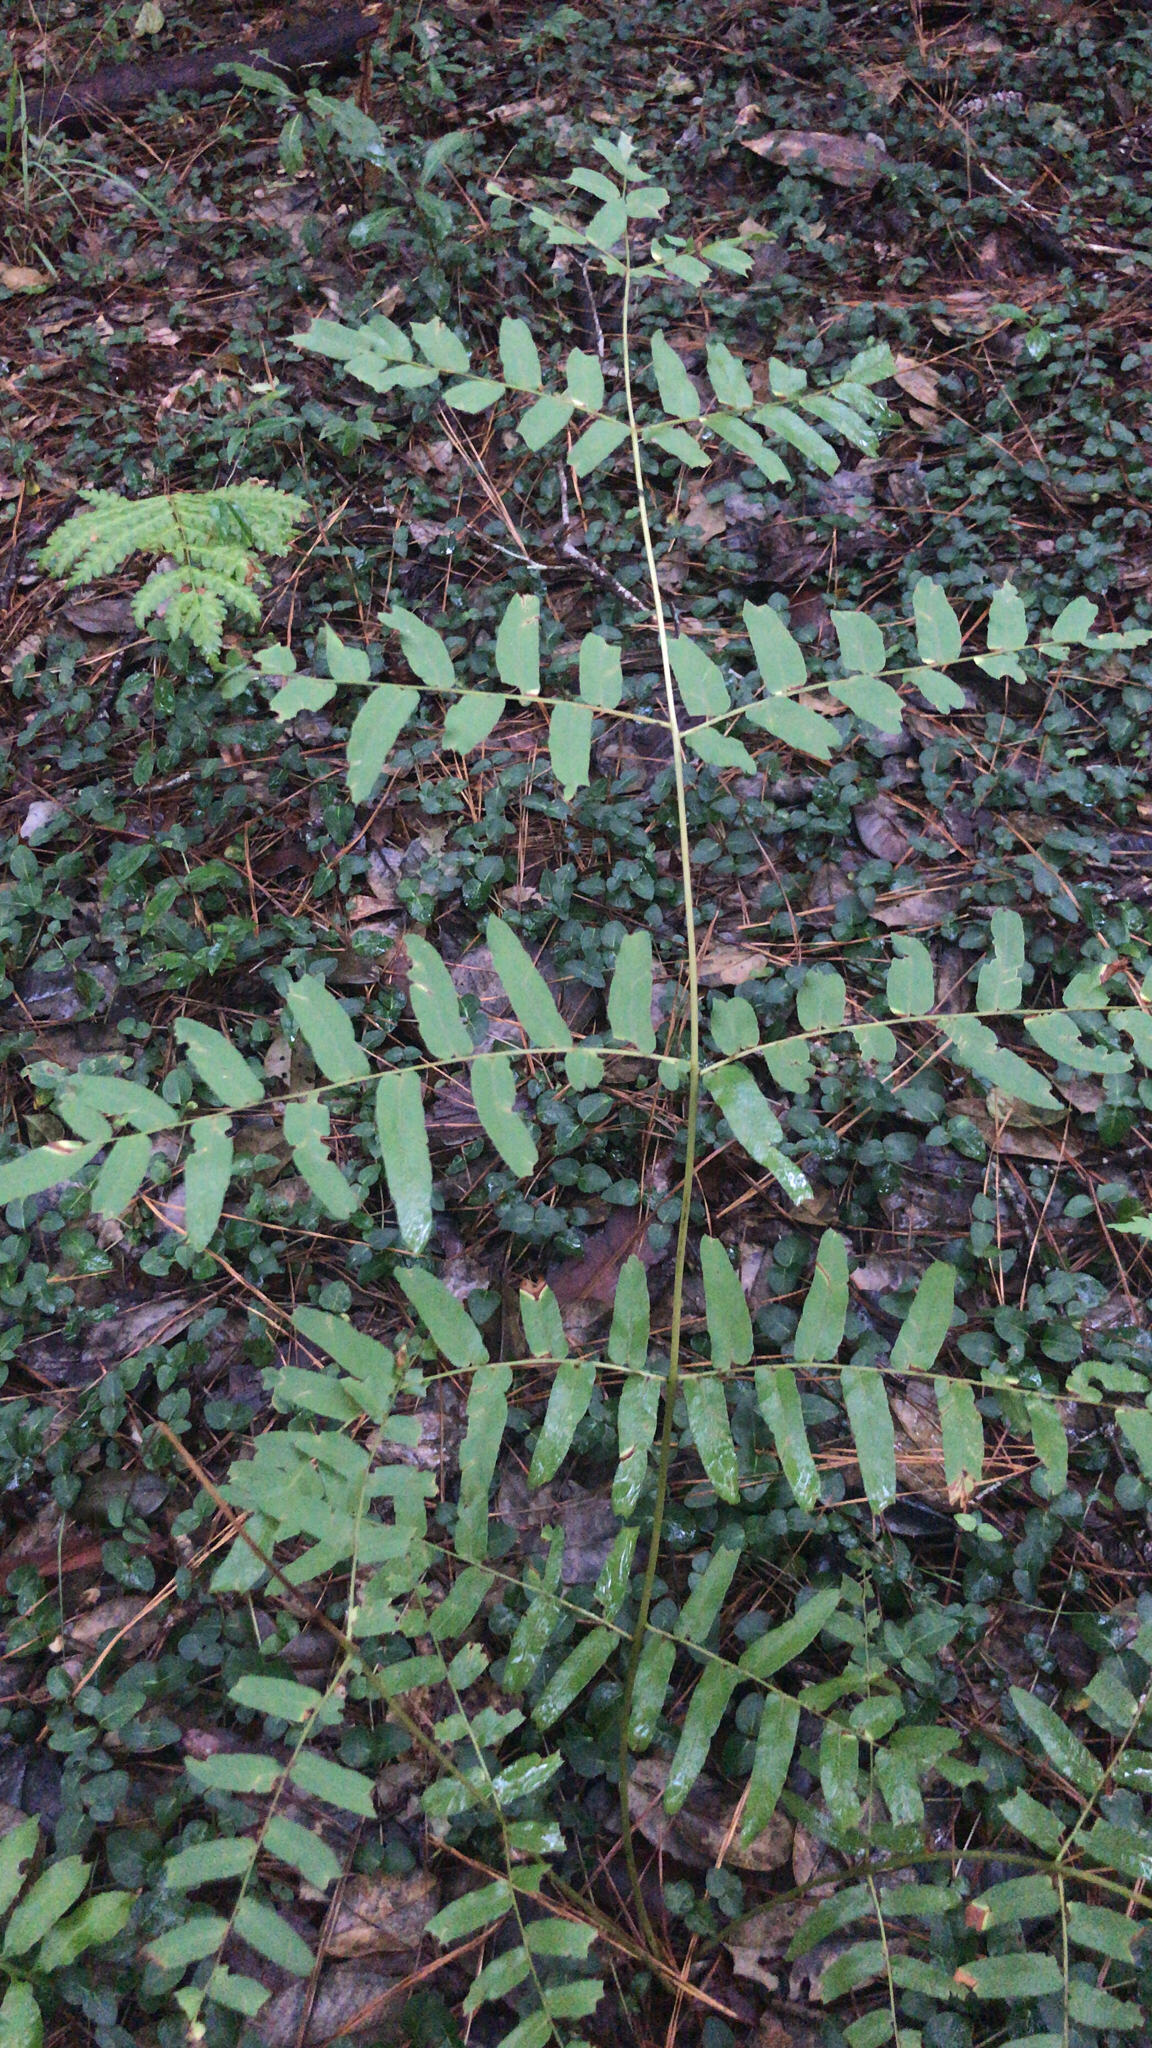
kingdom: Plantae
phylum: Tracheophyta
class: Polypodiopsida
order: Osmundales
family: Osmundaceae
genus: Osmunda
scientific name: Osmunda spectabilis
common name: American royal fern
